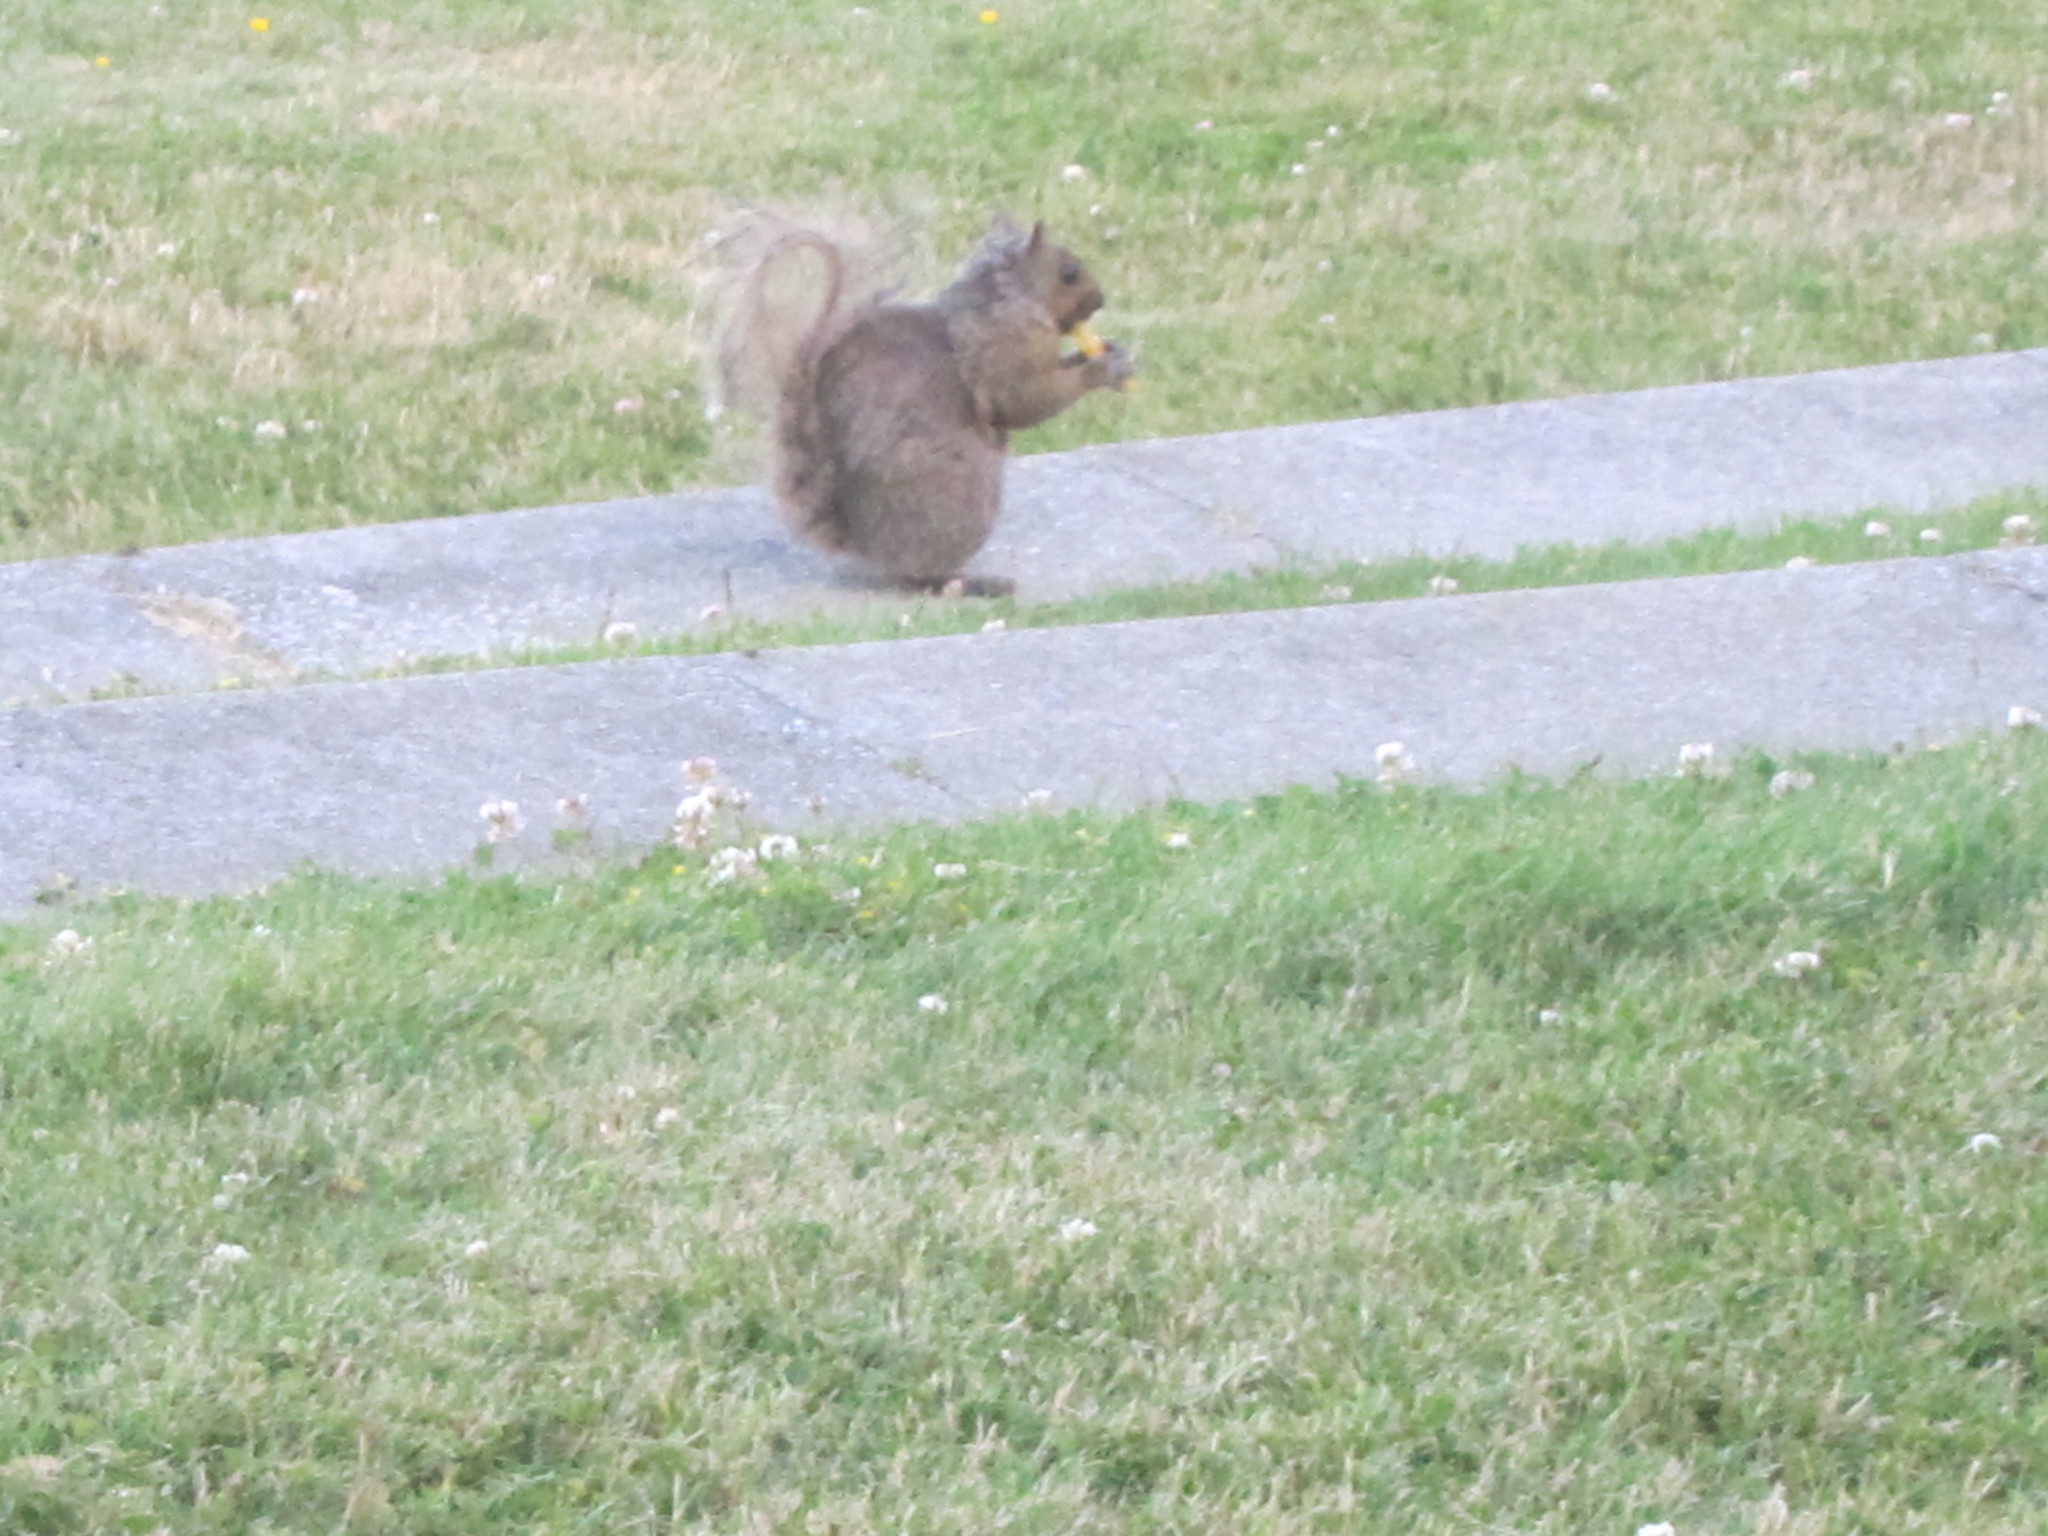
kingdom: Animalia
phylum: Chordata
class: Mammalia
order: Rodentia
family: Sciuridae
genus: Sciurus
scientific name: Sciurus carolinensis
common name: Eastern gray squirrel
